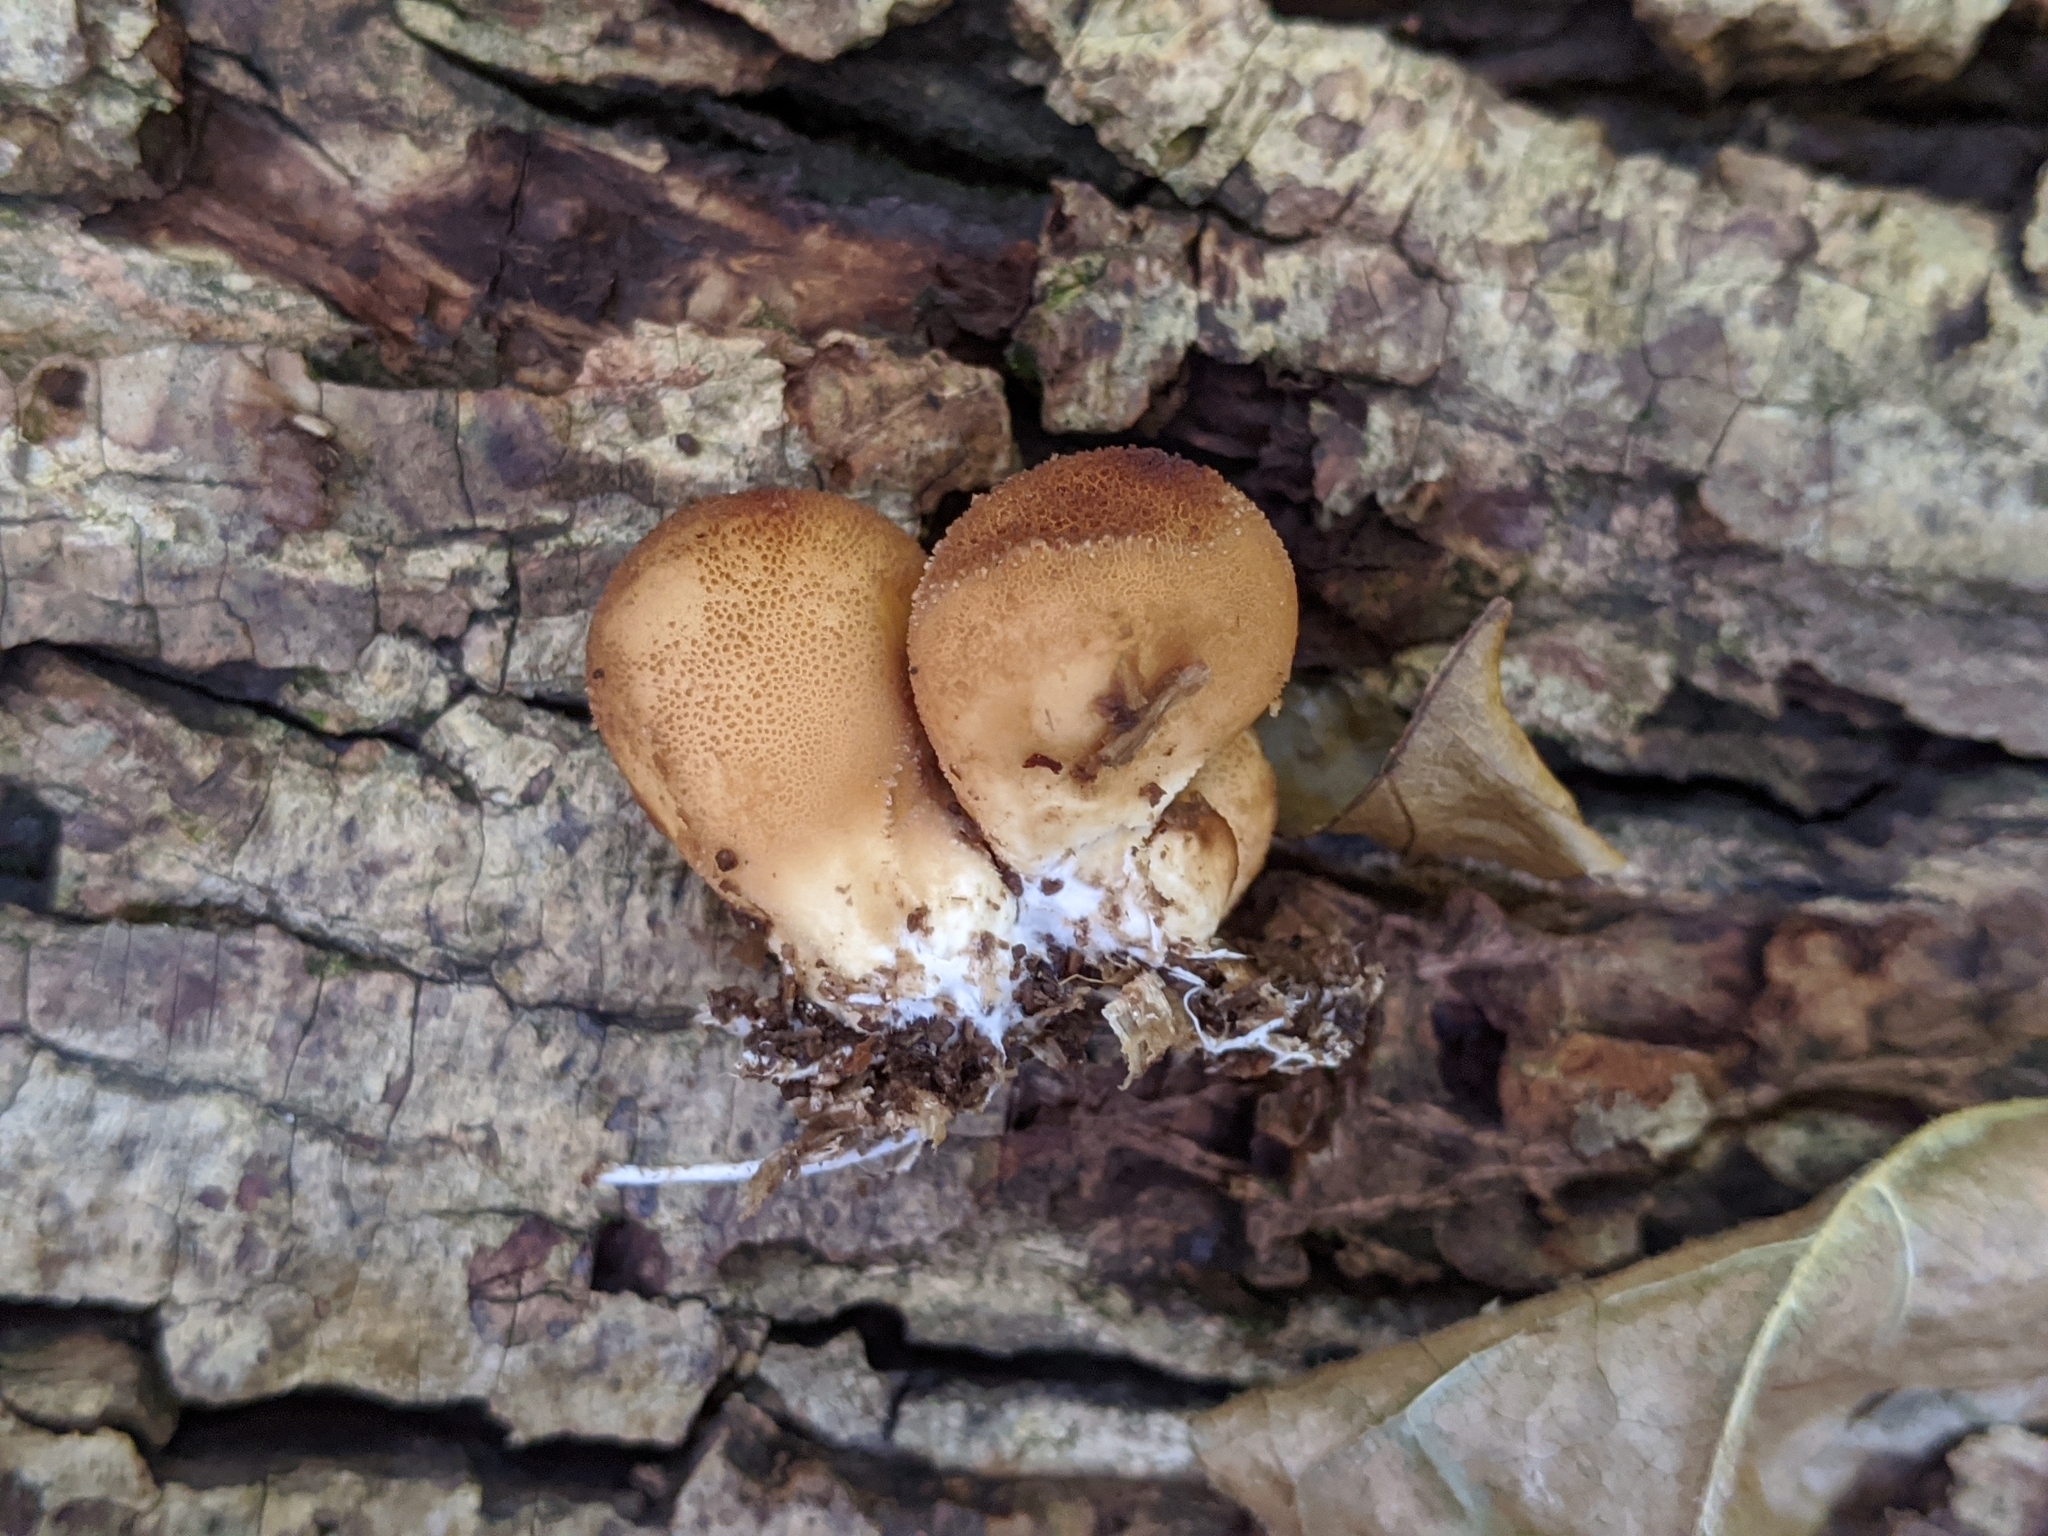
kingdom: Fungi
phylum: Basidiomycota
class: Agaricomycetes
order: Agaricales
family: Lycoperdaceae
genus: Apioperdon
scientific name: Apioperdon pyriforme
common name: Pear-shaped puffball
